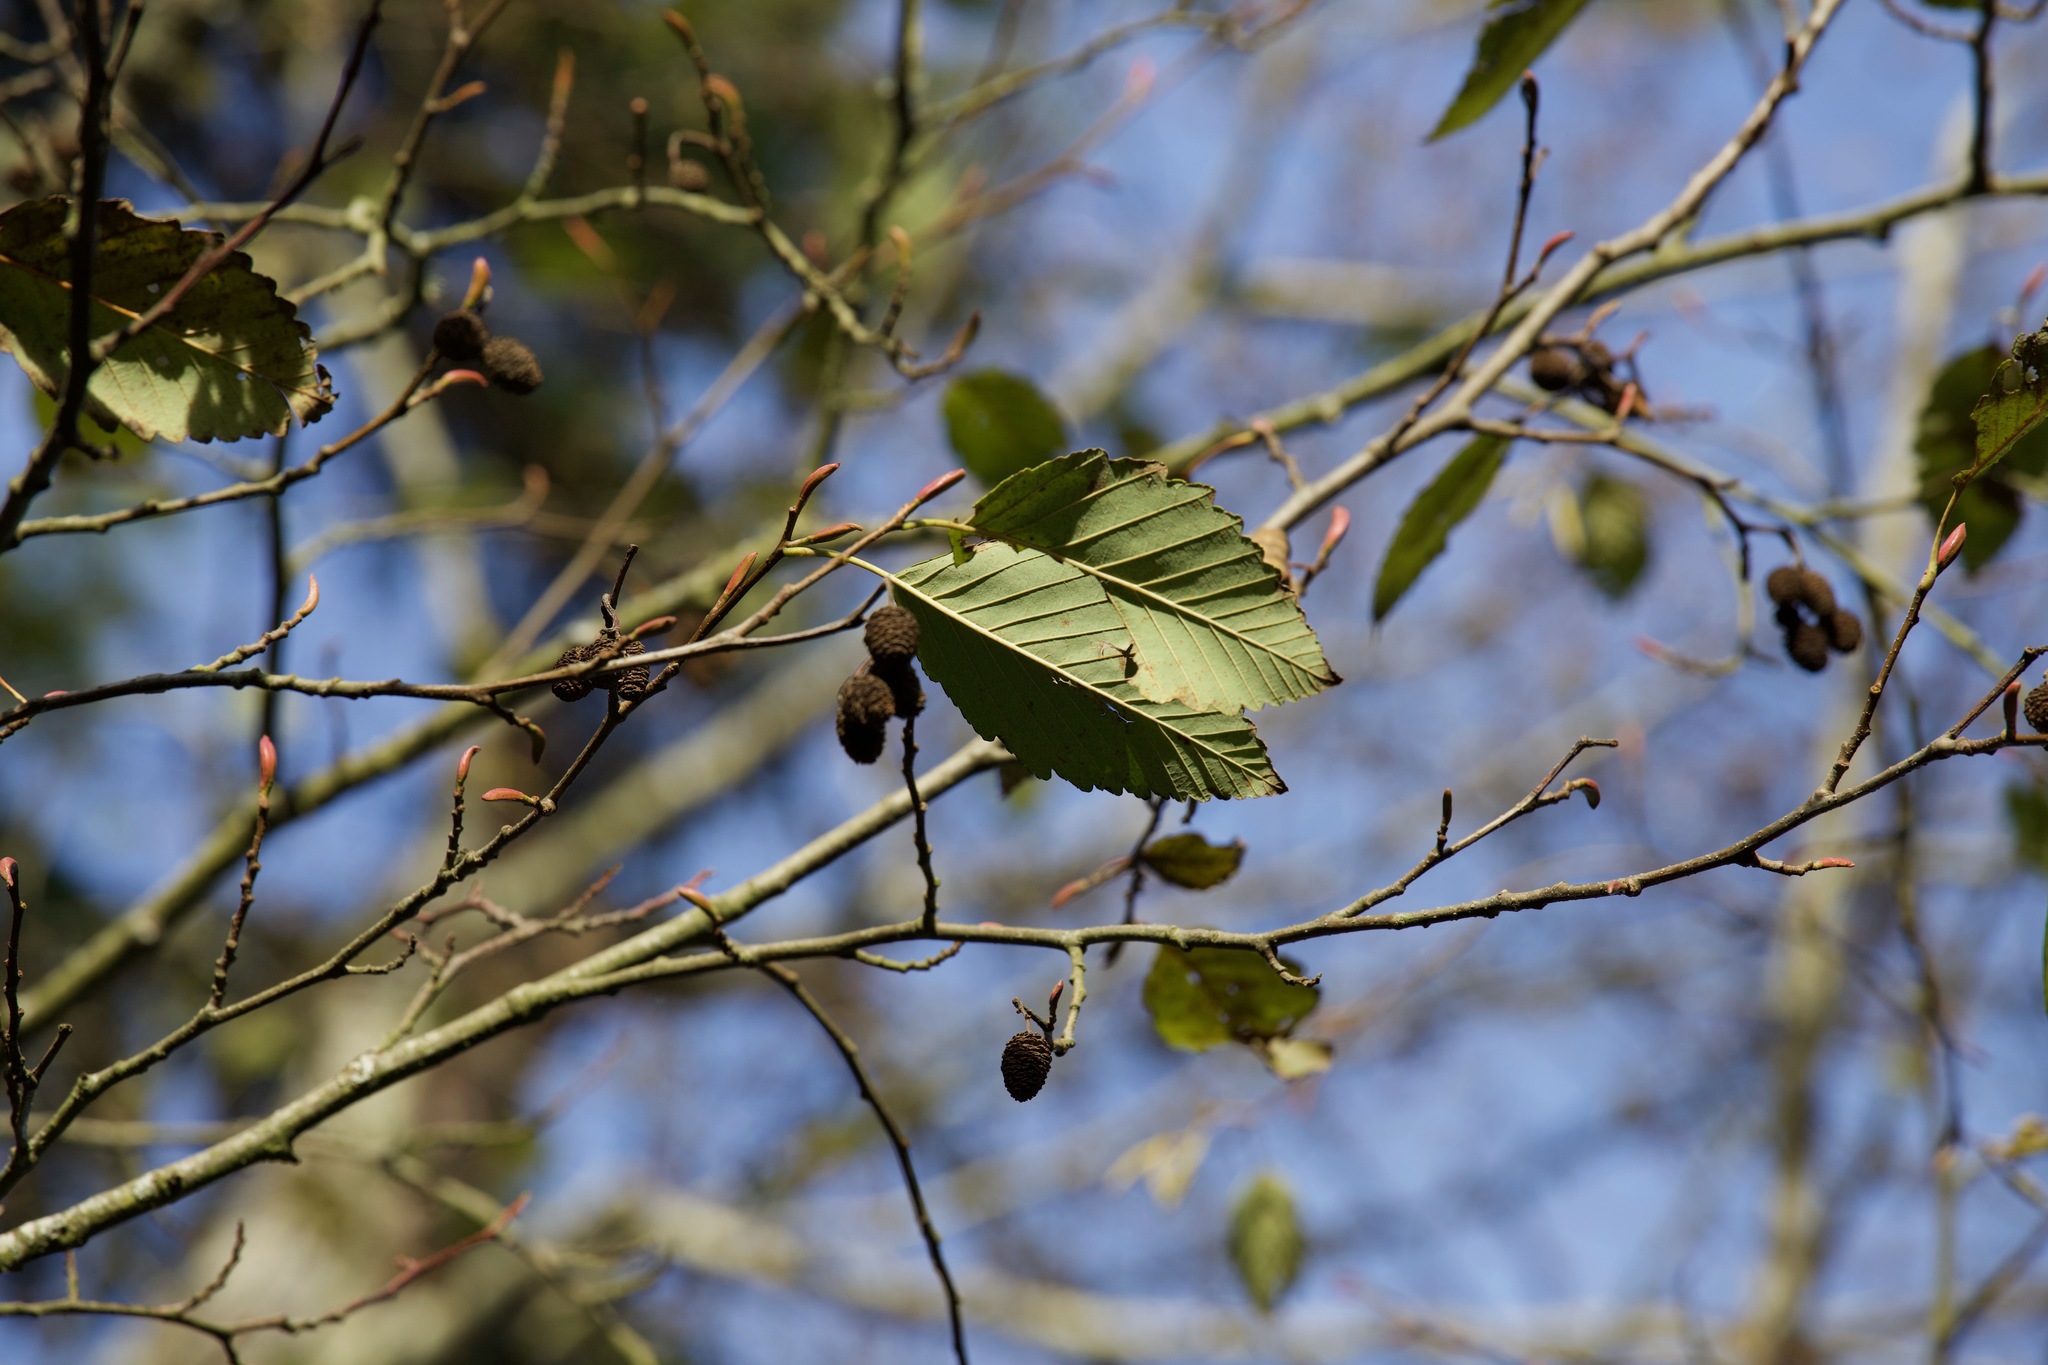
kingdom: Plantae
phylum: Tracheophyta
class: Magnoliopsida
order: Fagales
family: Betulaceae
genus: Alnus
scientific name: Alnus rubra
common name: Red alder
